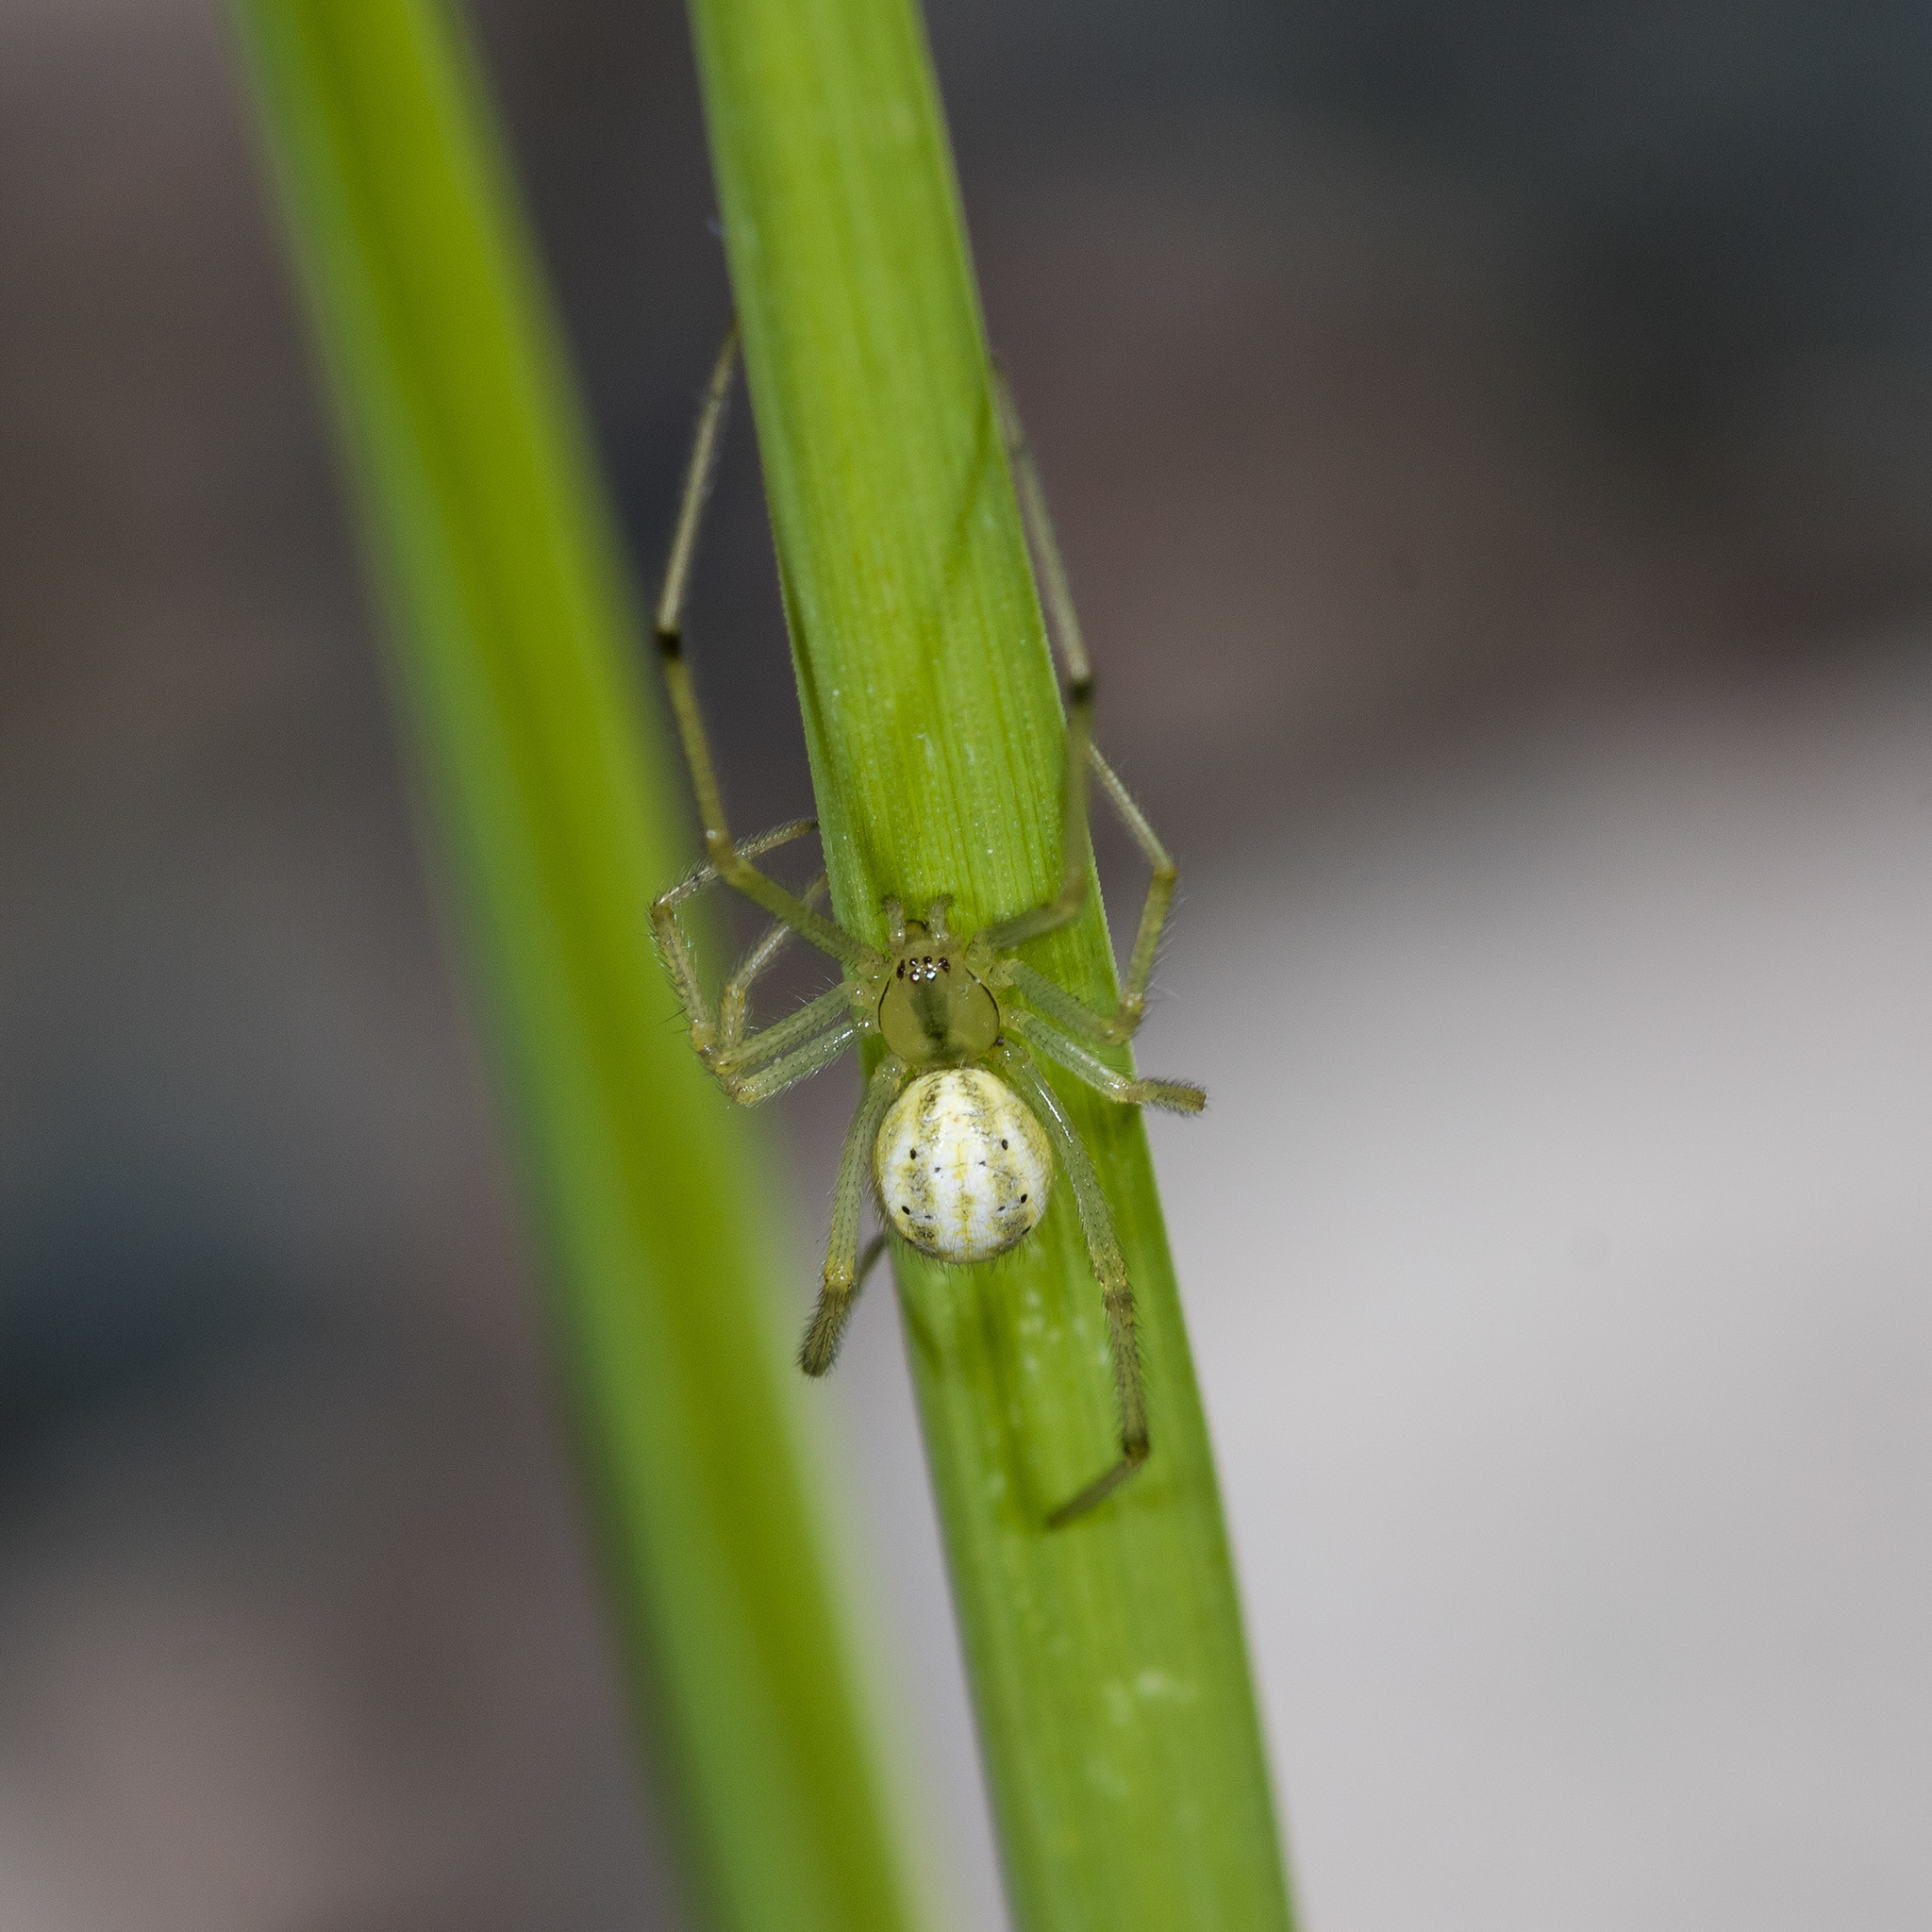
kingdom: Animalia
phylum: Arthropoda
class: Arachnida
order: Araneae
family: Theridiidae
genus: Enoplognatha
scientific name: Enoplognatha latimana
